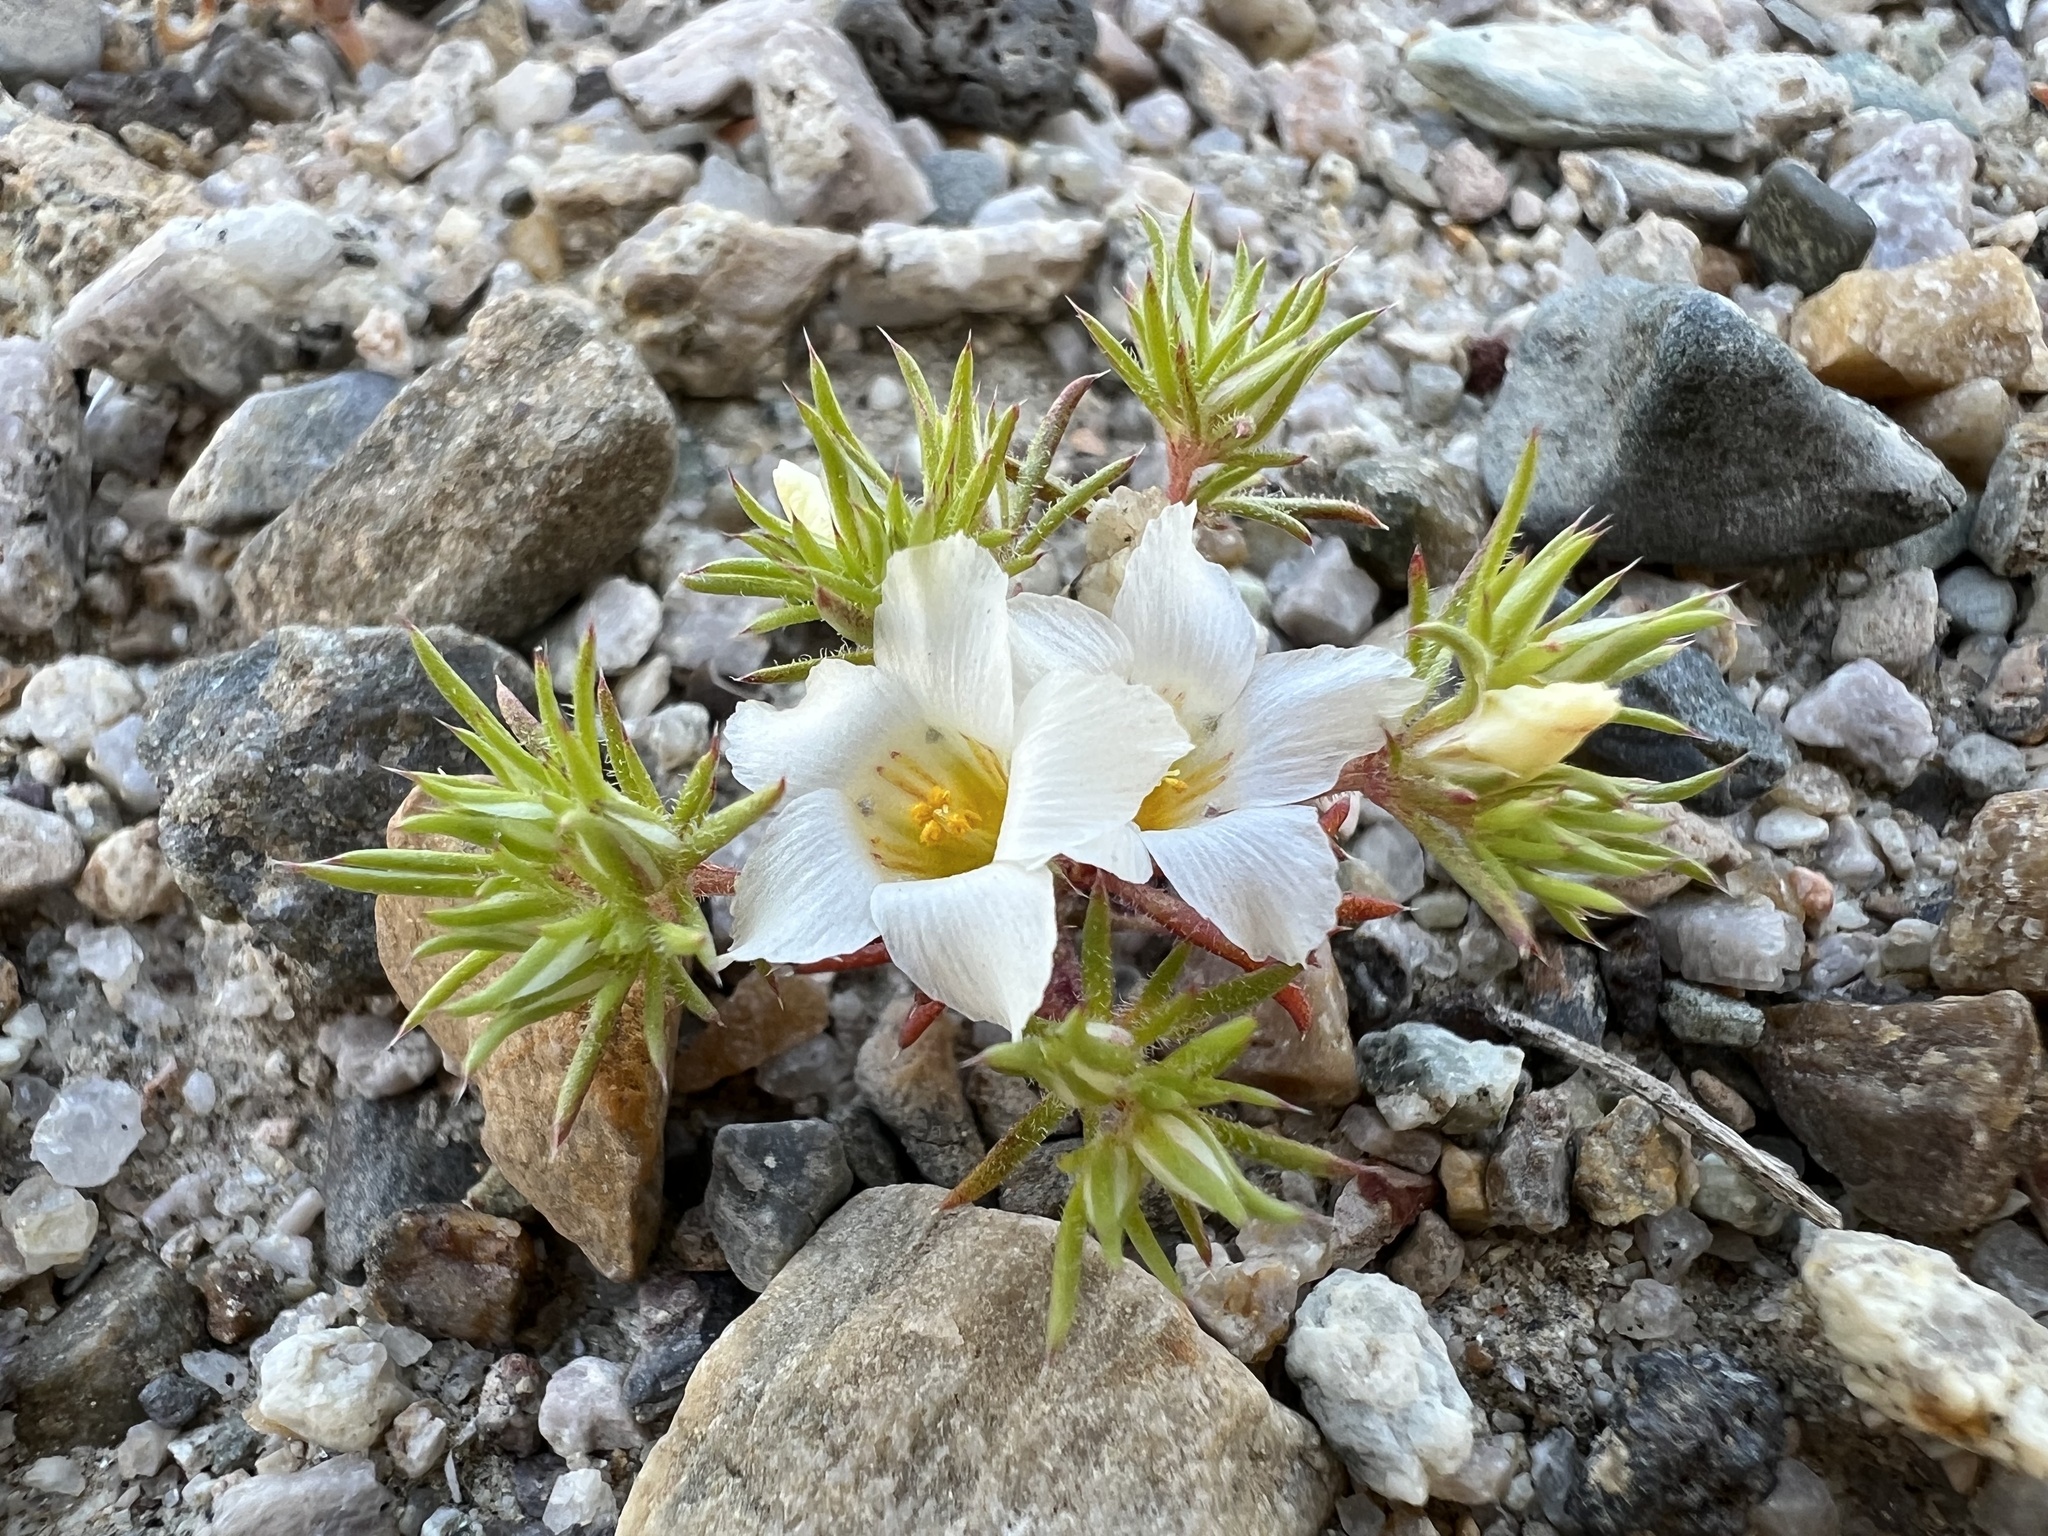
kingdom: Plantae
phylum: Tracheophyta
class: Magnoliopsida
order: Ericales
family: Polemoniaceae
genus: Linanthus
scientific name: Linanthus demissus
